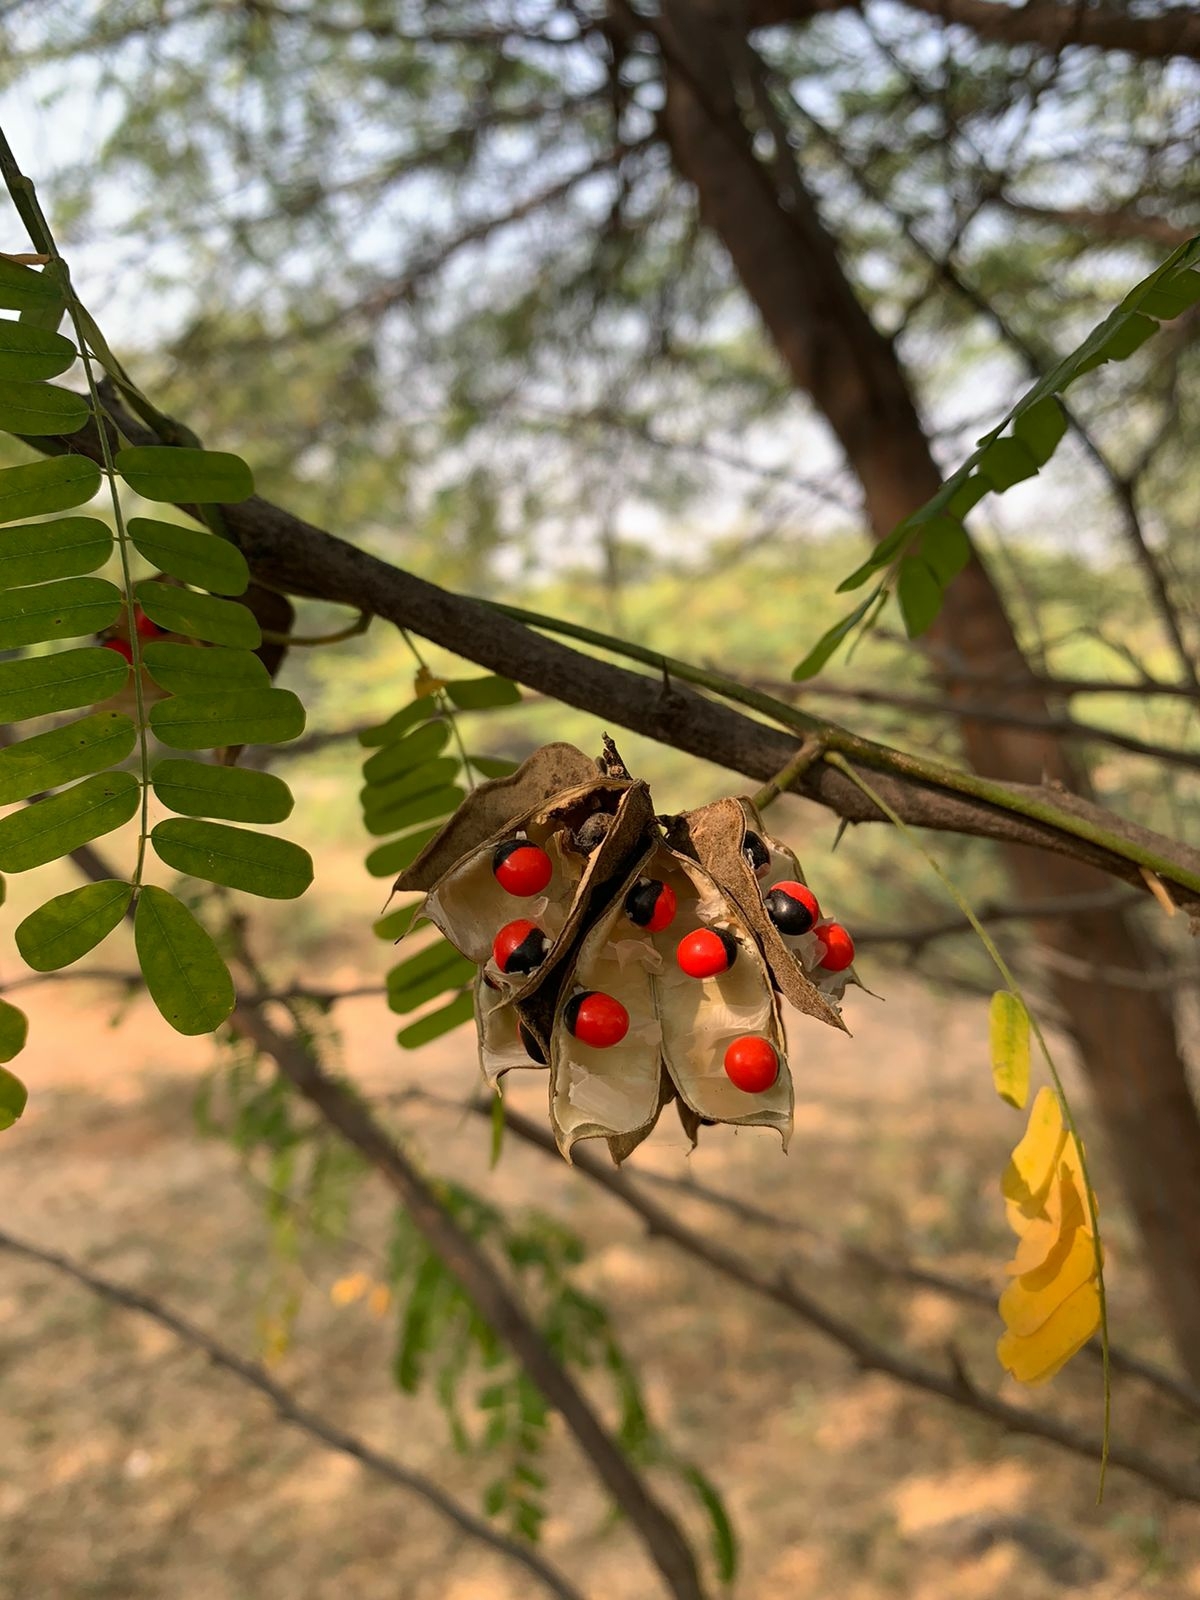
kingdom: Plantae
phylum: Tracheophyta
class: Magnoliopsida
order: Fabales
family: Fabaceae
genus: Abrus
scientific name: Abrus precatorius
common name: Rosarypea
